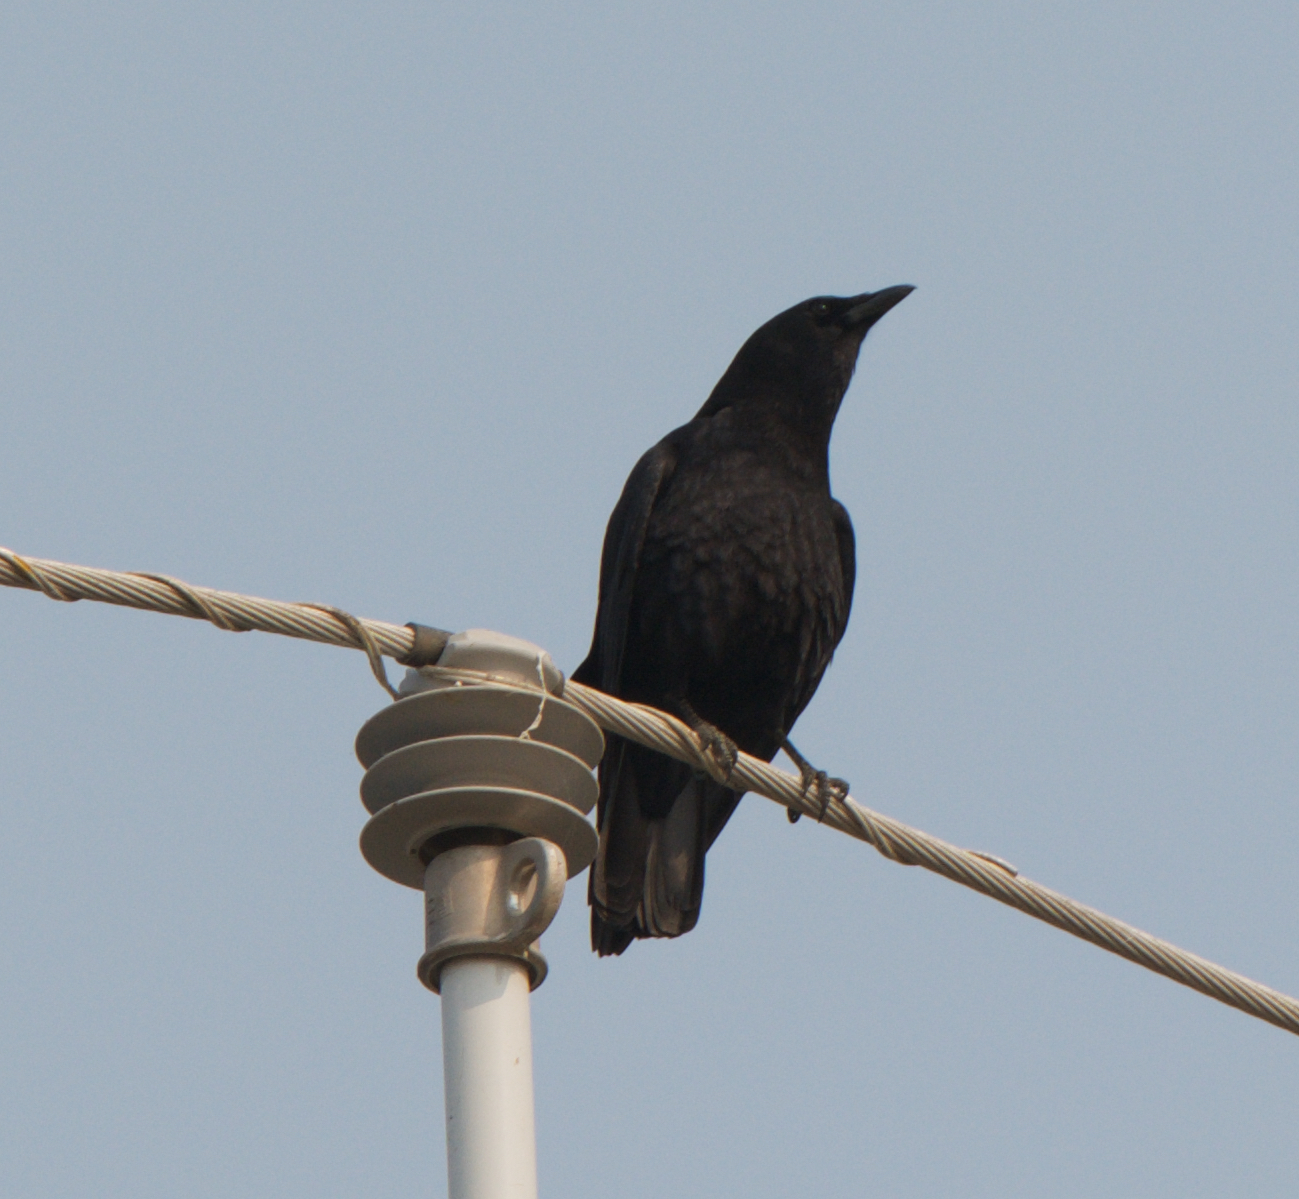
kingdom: Animalia
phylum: Chordata
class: Aves
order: Passeriformes
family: Corvidae
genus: Corvus
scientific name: Corvus brachyrhynchos
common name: American crow
